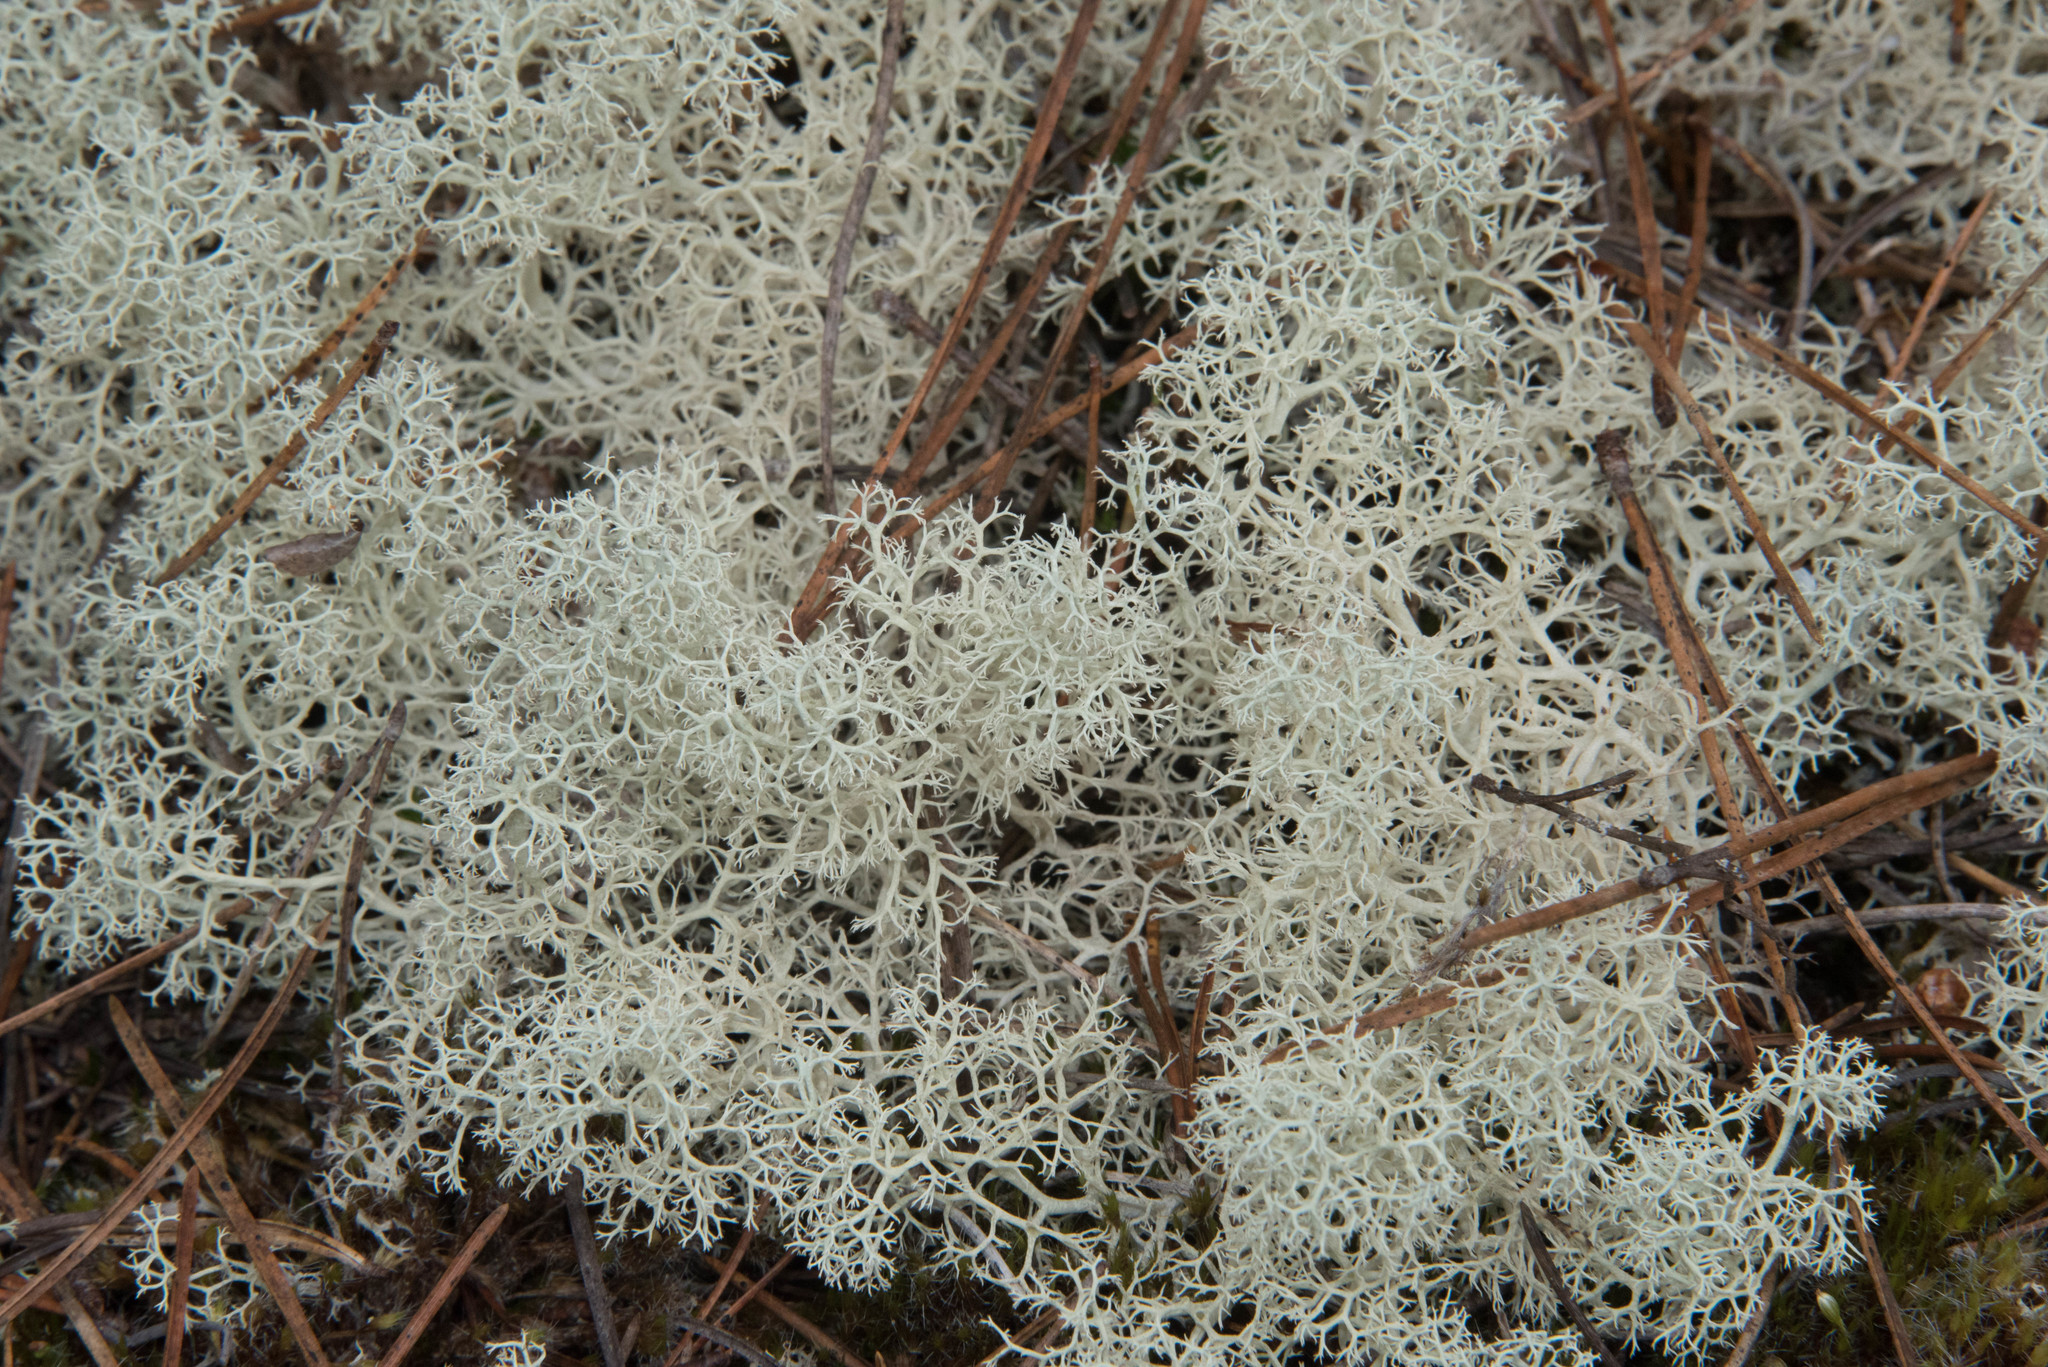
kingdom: Fungi
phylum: Ascomycota
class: Lecanoromycetes
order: Lecanorales
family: Cladoniaceae
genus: Cladonia
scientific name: Cladonia portentosa
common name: Reindeer lichen
